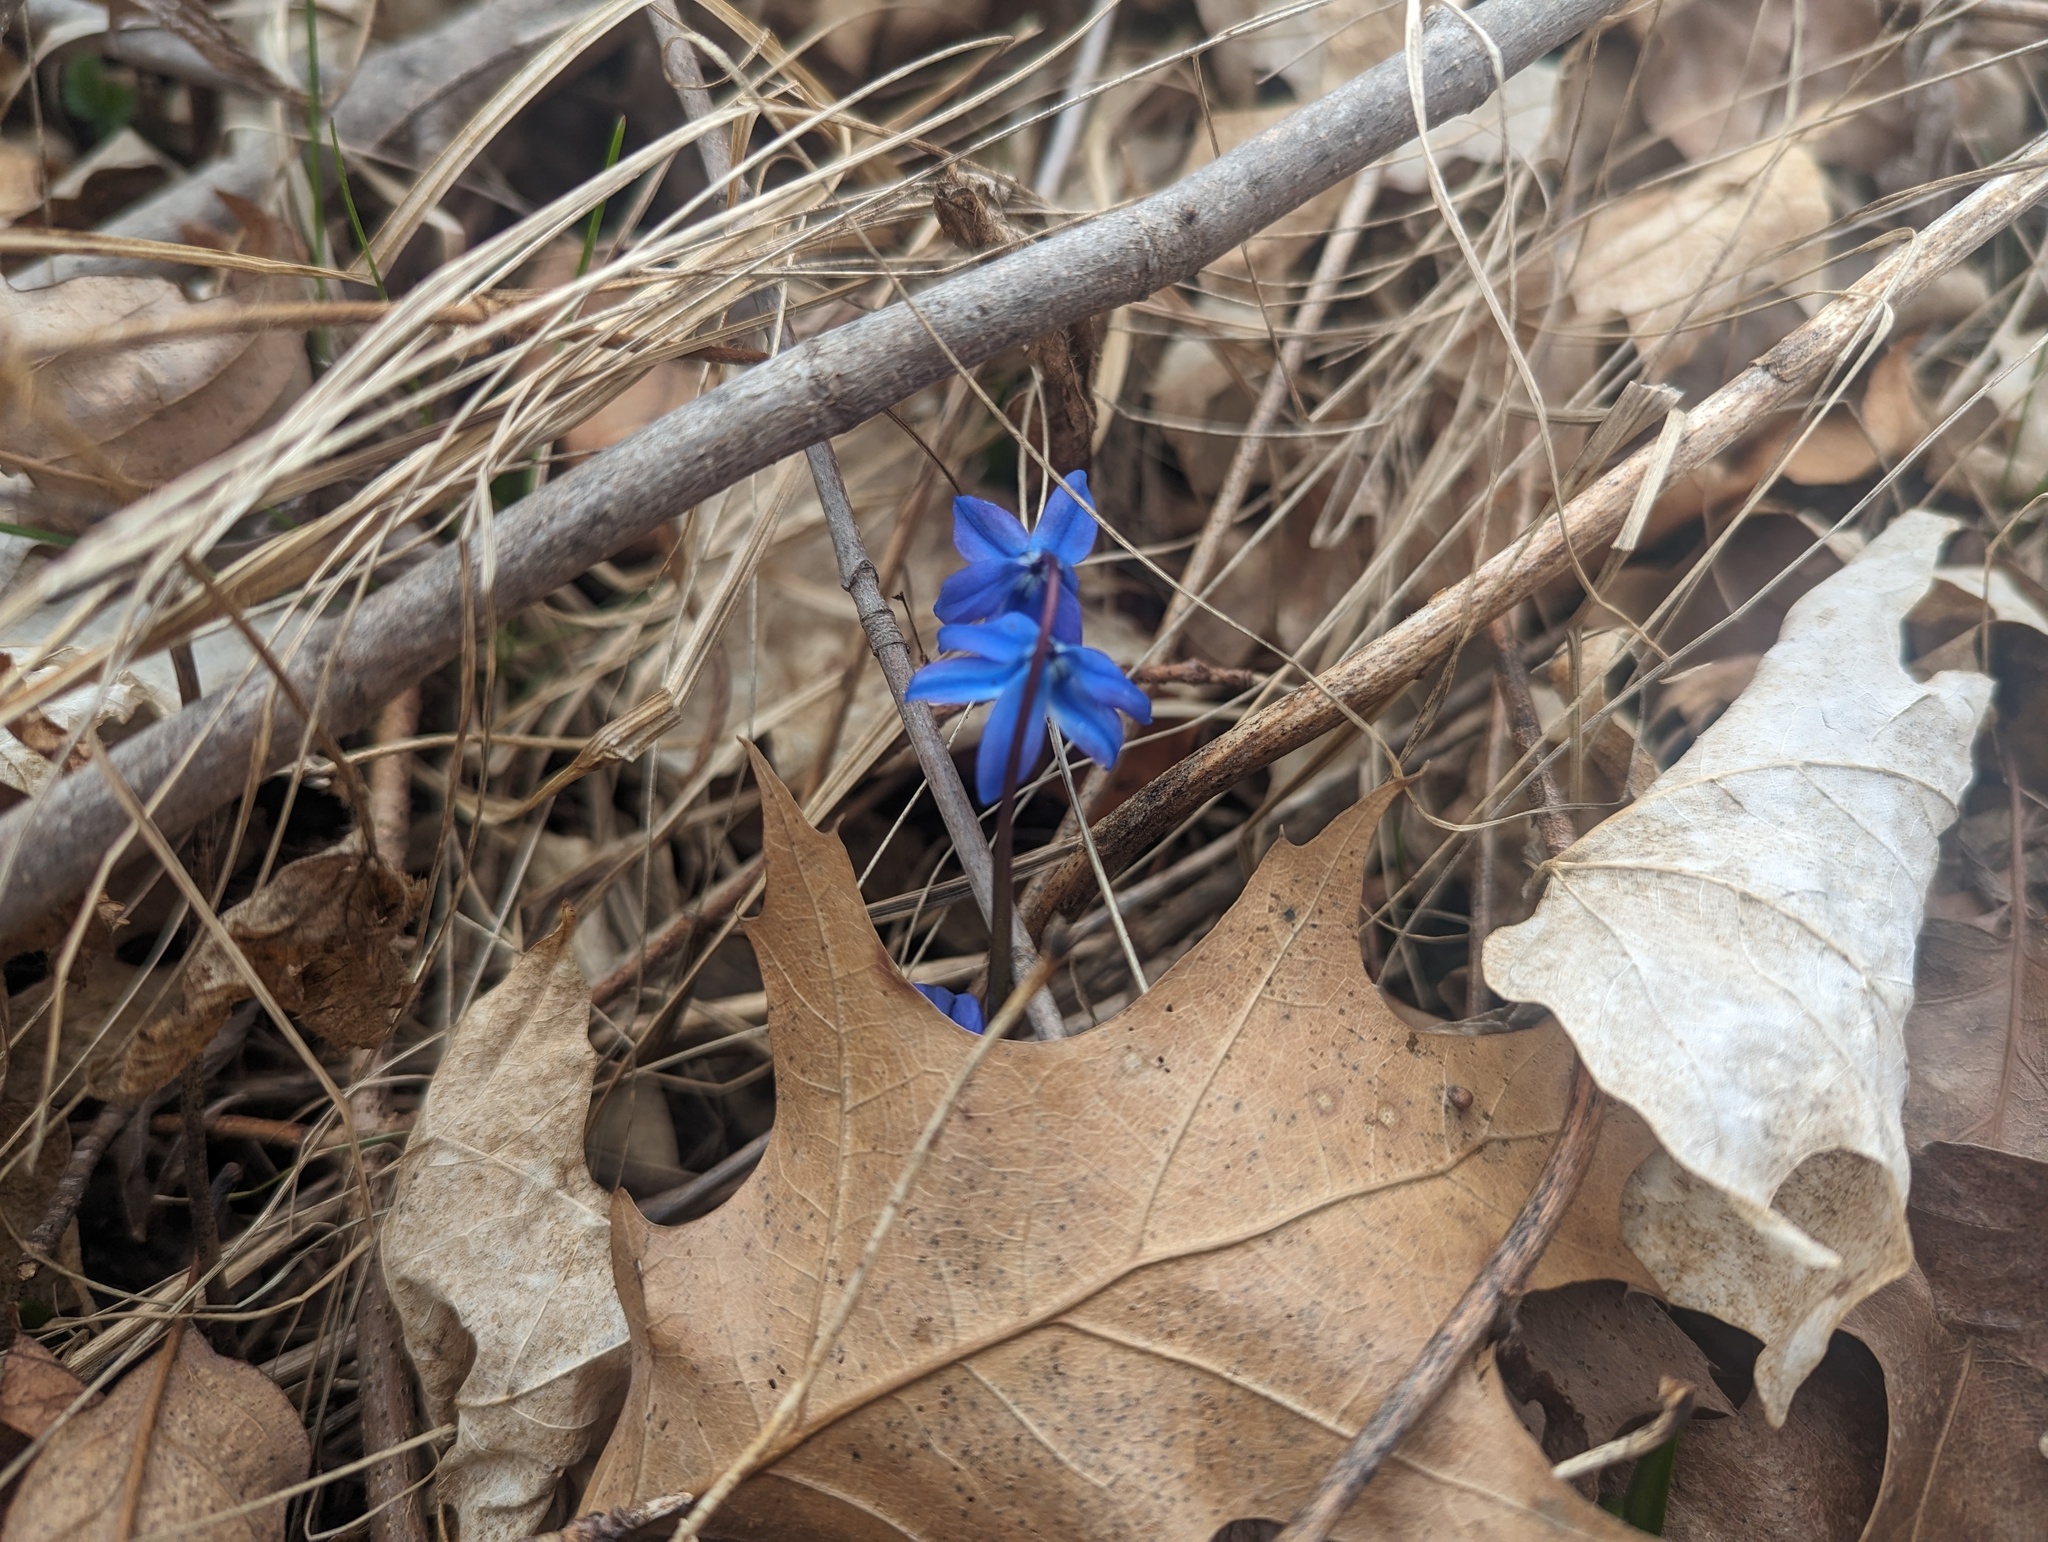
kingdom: Plantae
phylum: Tracheophyta
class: Liliopsida
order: Asparagales
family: Asparagaceae
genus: Scilla
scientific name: Scilla siberica
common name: Siberian squill
